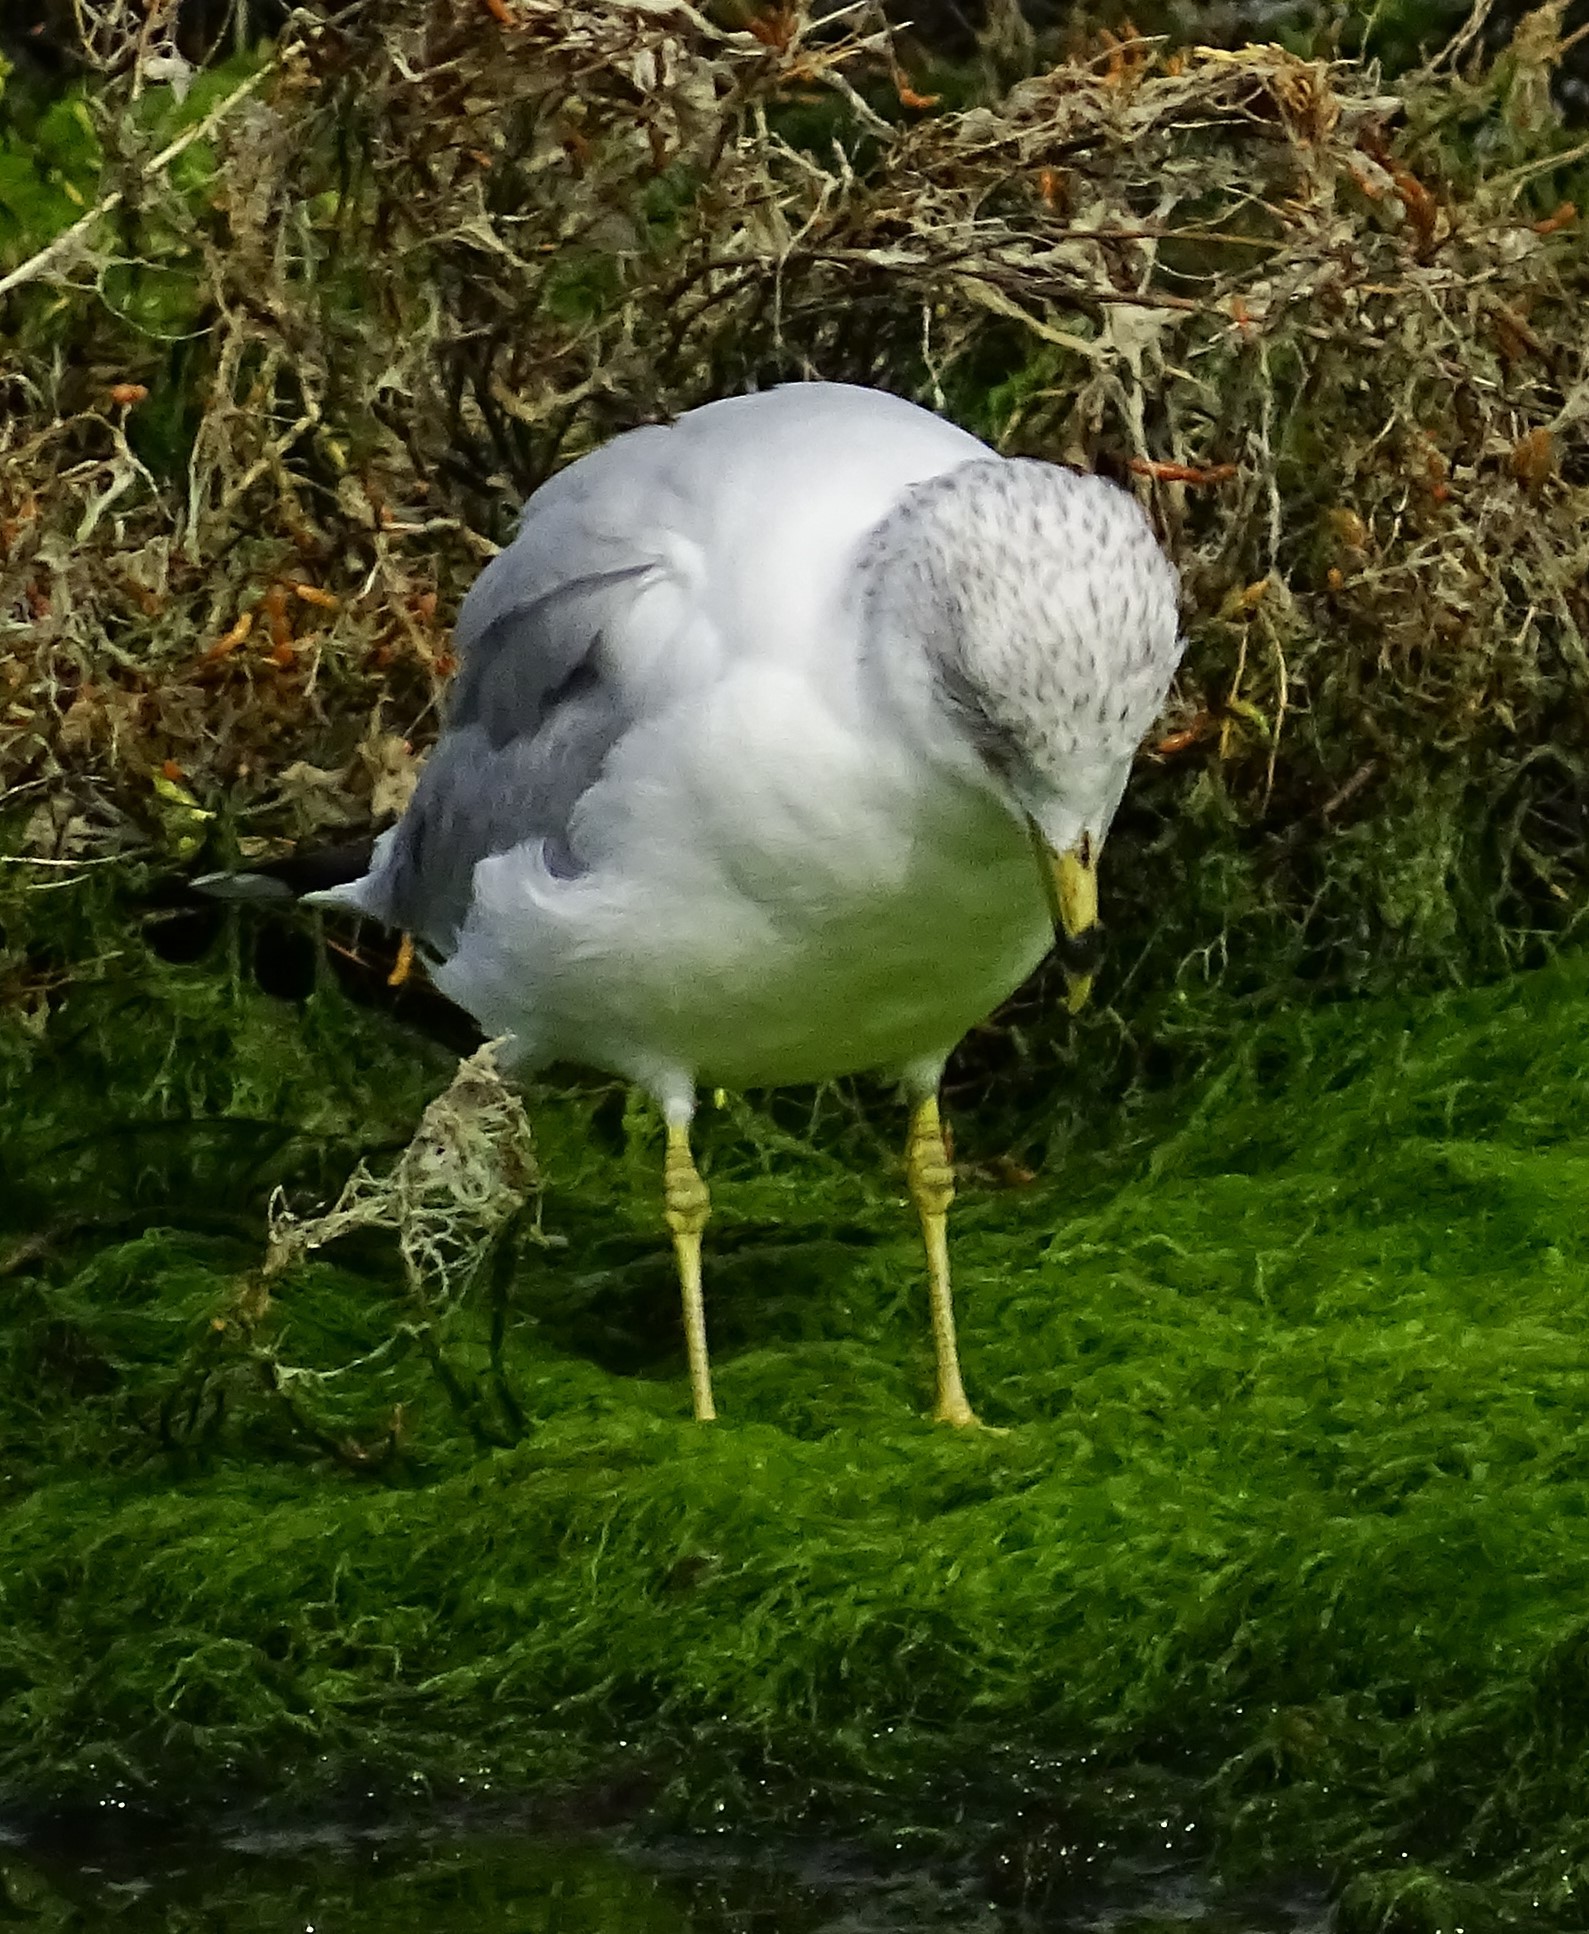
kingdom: Animalia
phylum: Chordata
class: Aves
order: Charadriiformes
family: Laridae
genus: Larus
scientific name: Larus delawarensis
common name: Ring-billed gull
